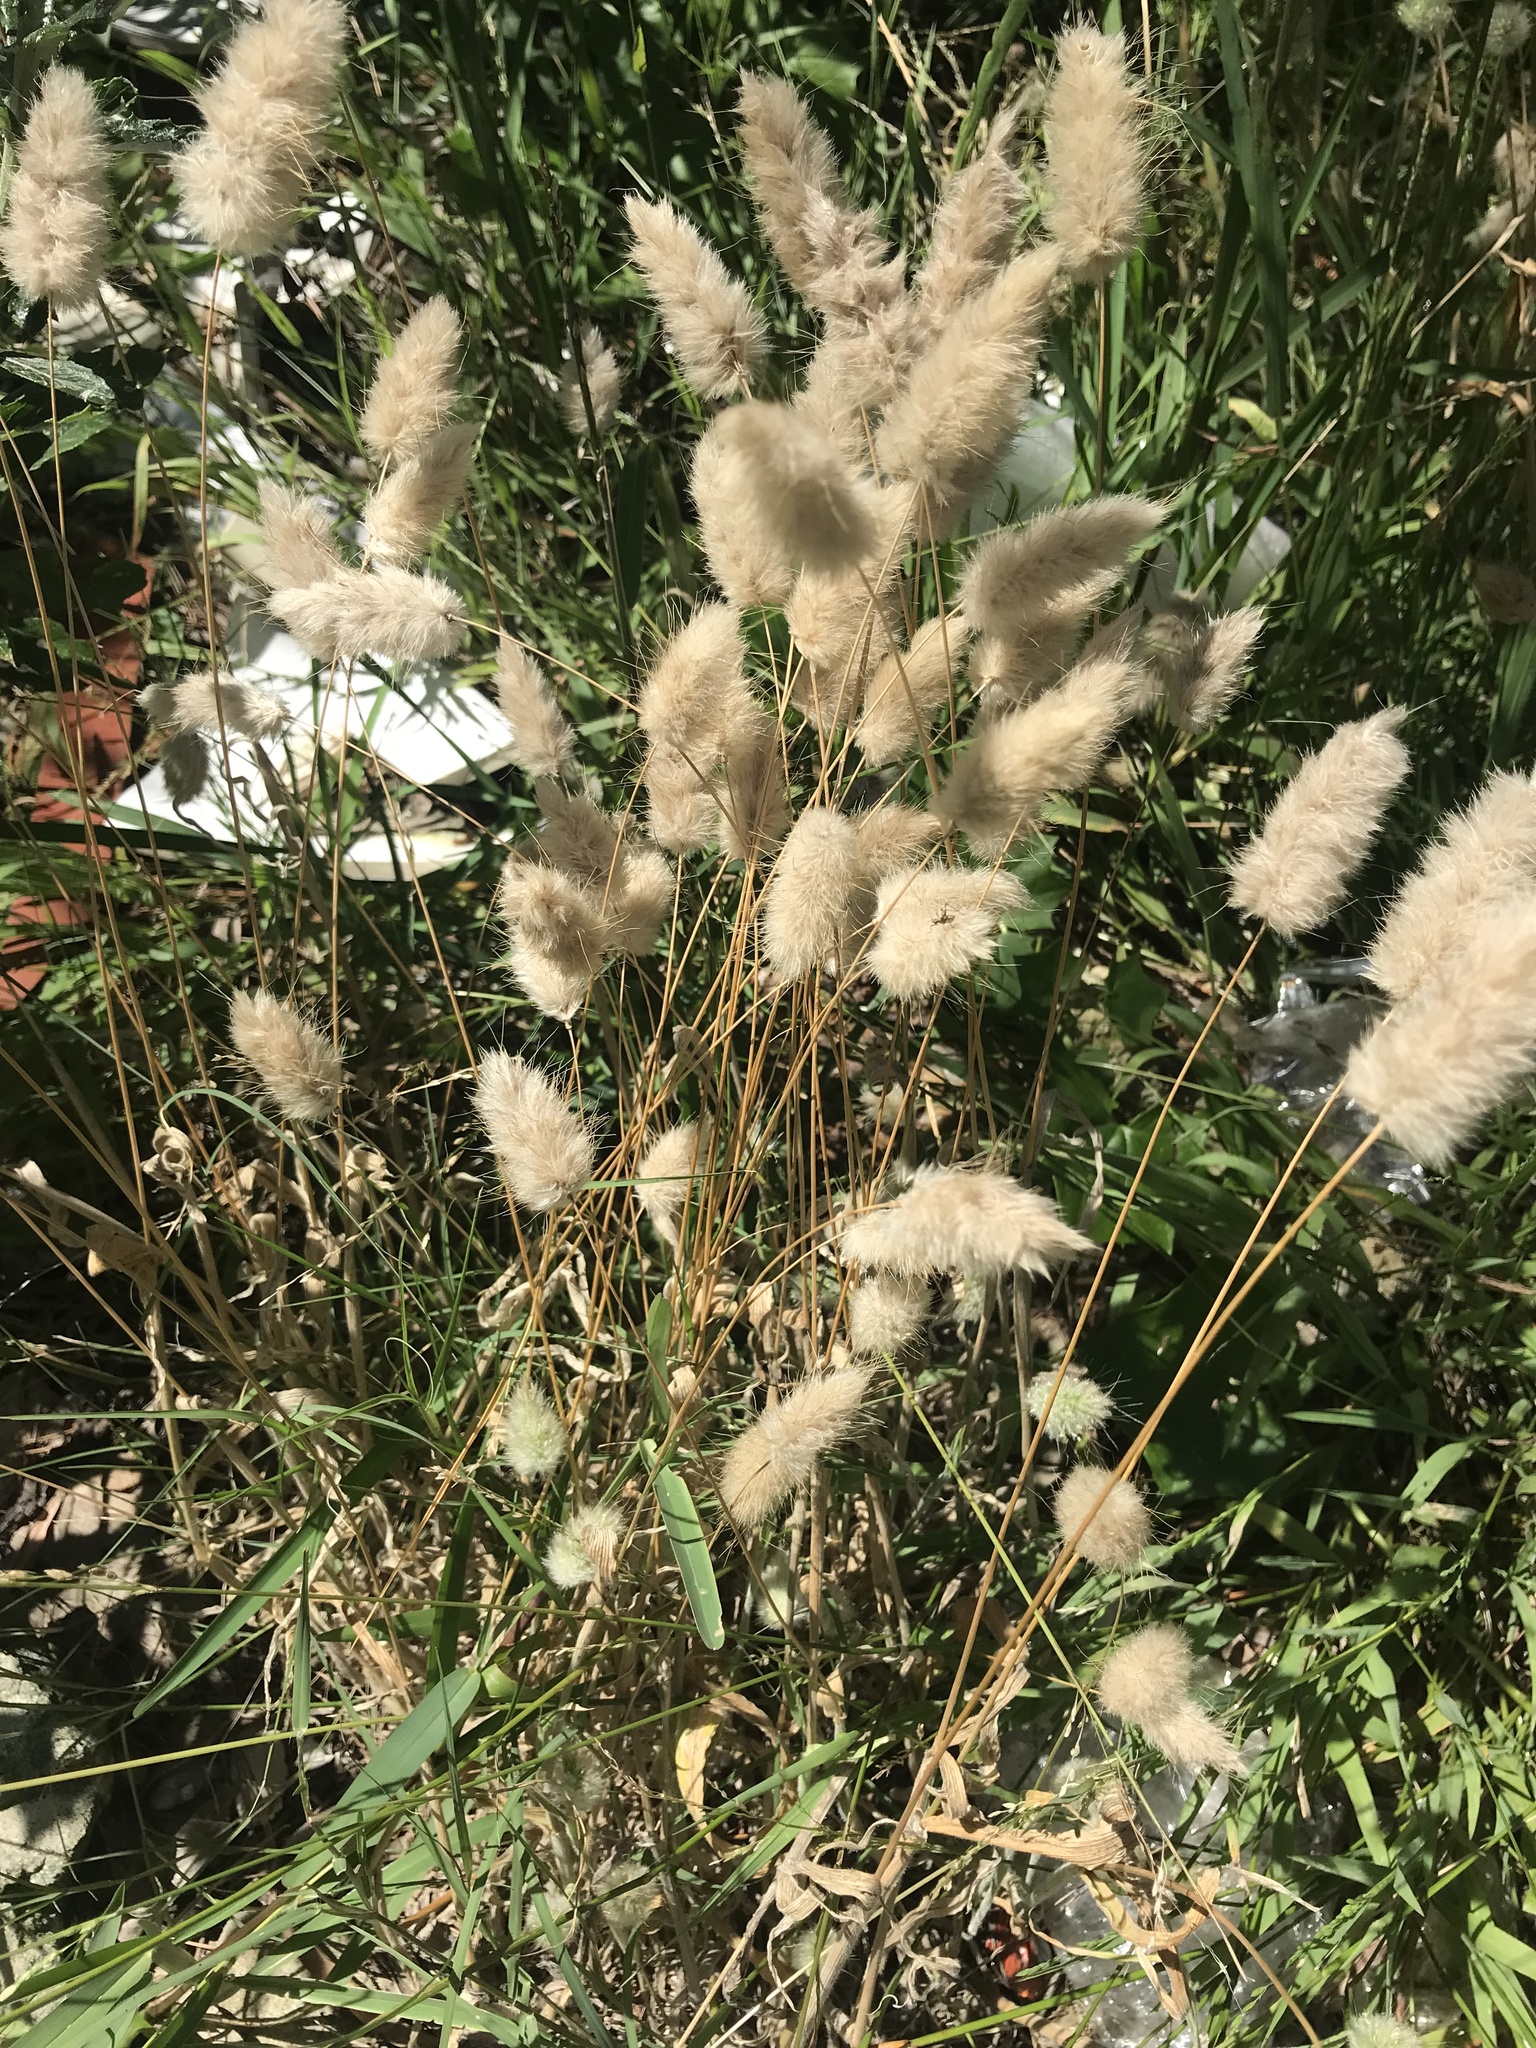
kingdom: Plantae
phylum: Tracheophyta
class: Liliopsida
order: Poales
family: Poaceae
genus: Lagurus
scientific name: Lagurus ovatus
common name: Hare's-tail
